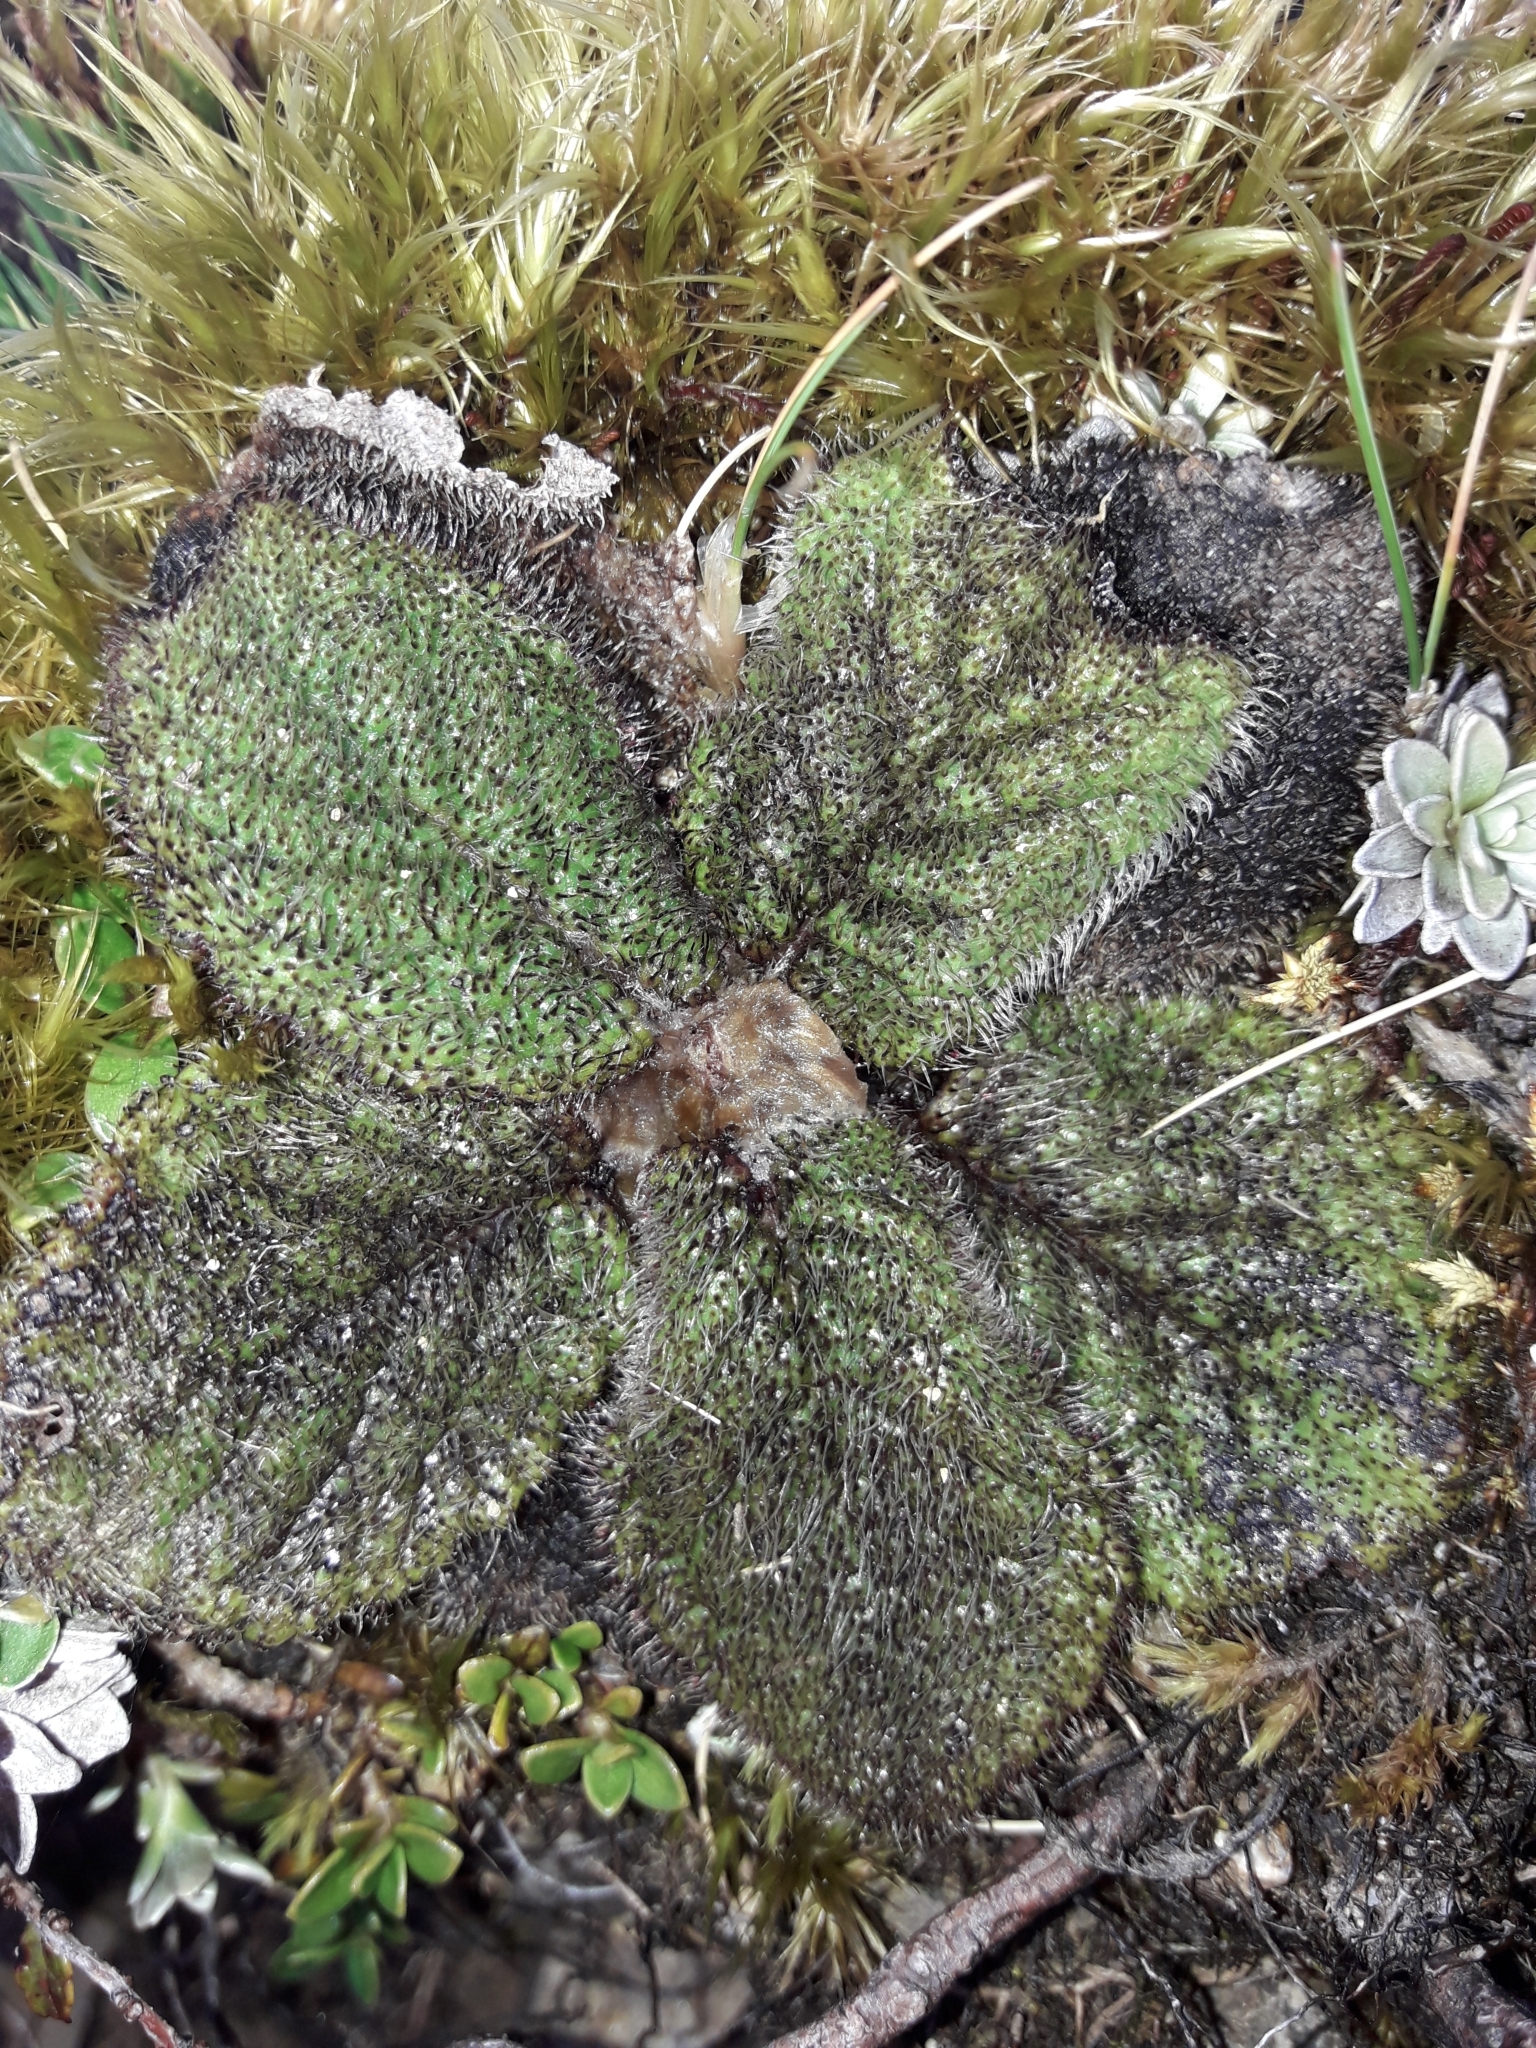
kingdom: Plantae
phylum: Tracheophyta
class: Magnoliopsida
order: Asterales
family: Asteraceae
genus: Brachyglottis
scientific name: Brachyglottis lagopus
